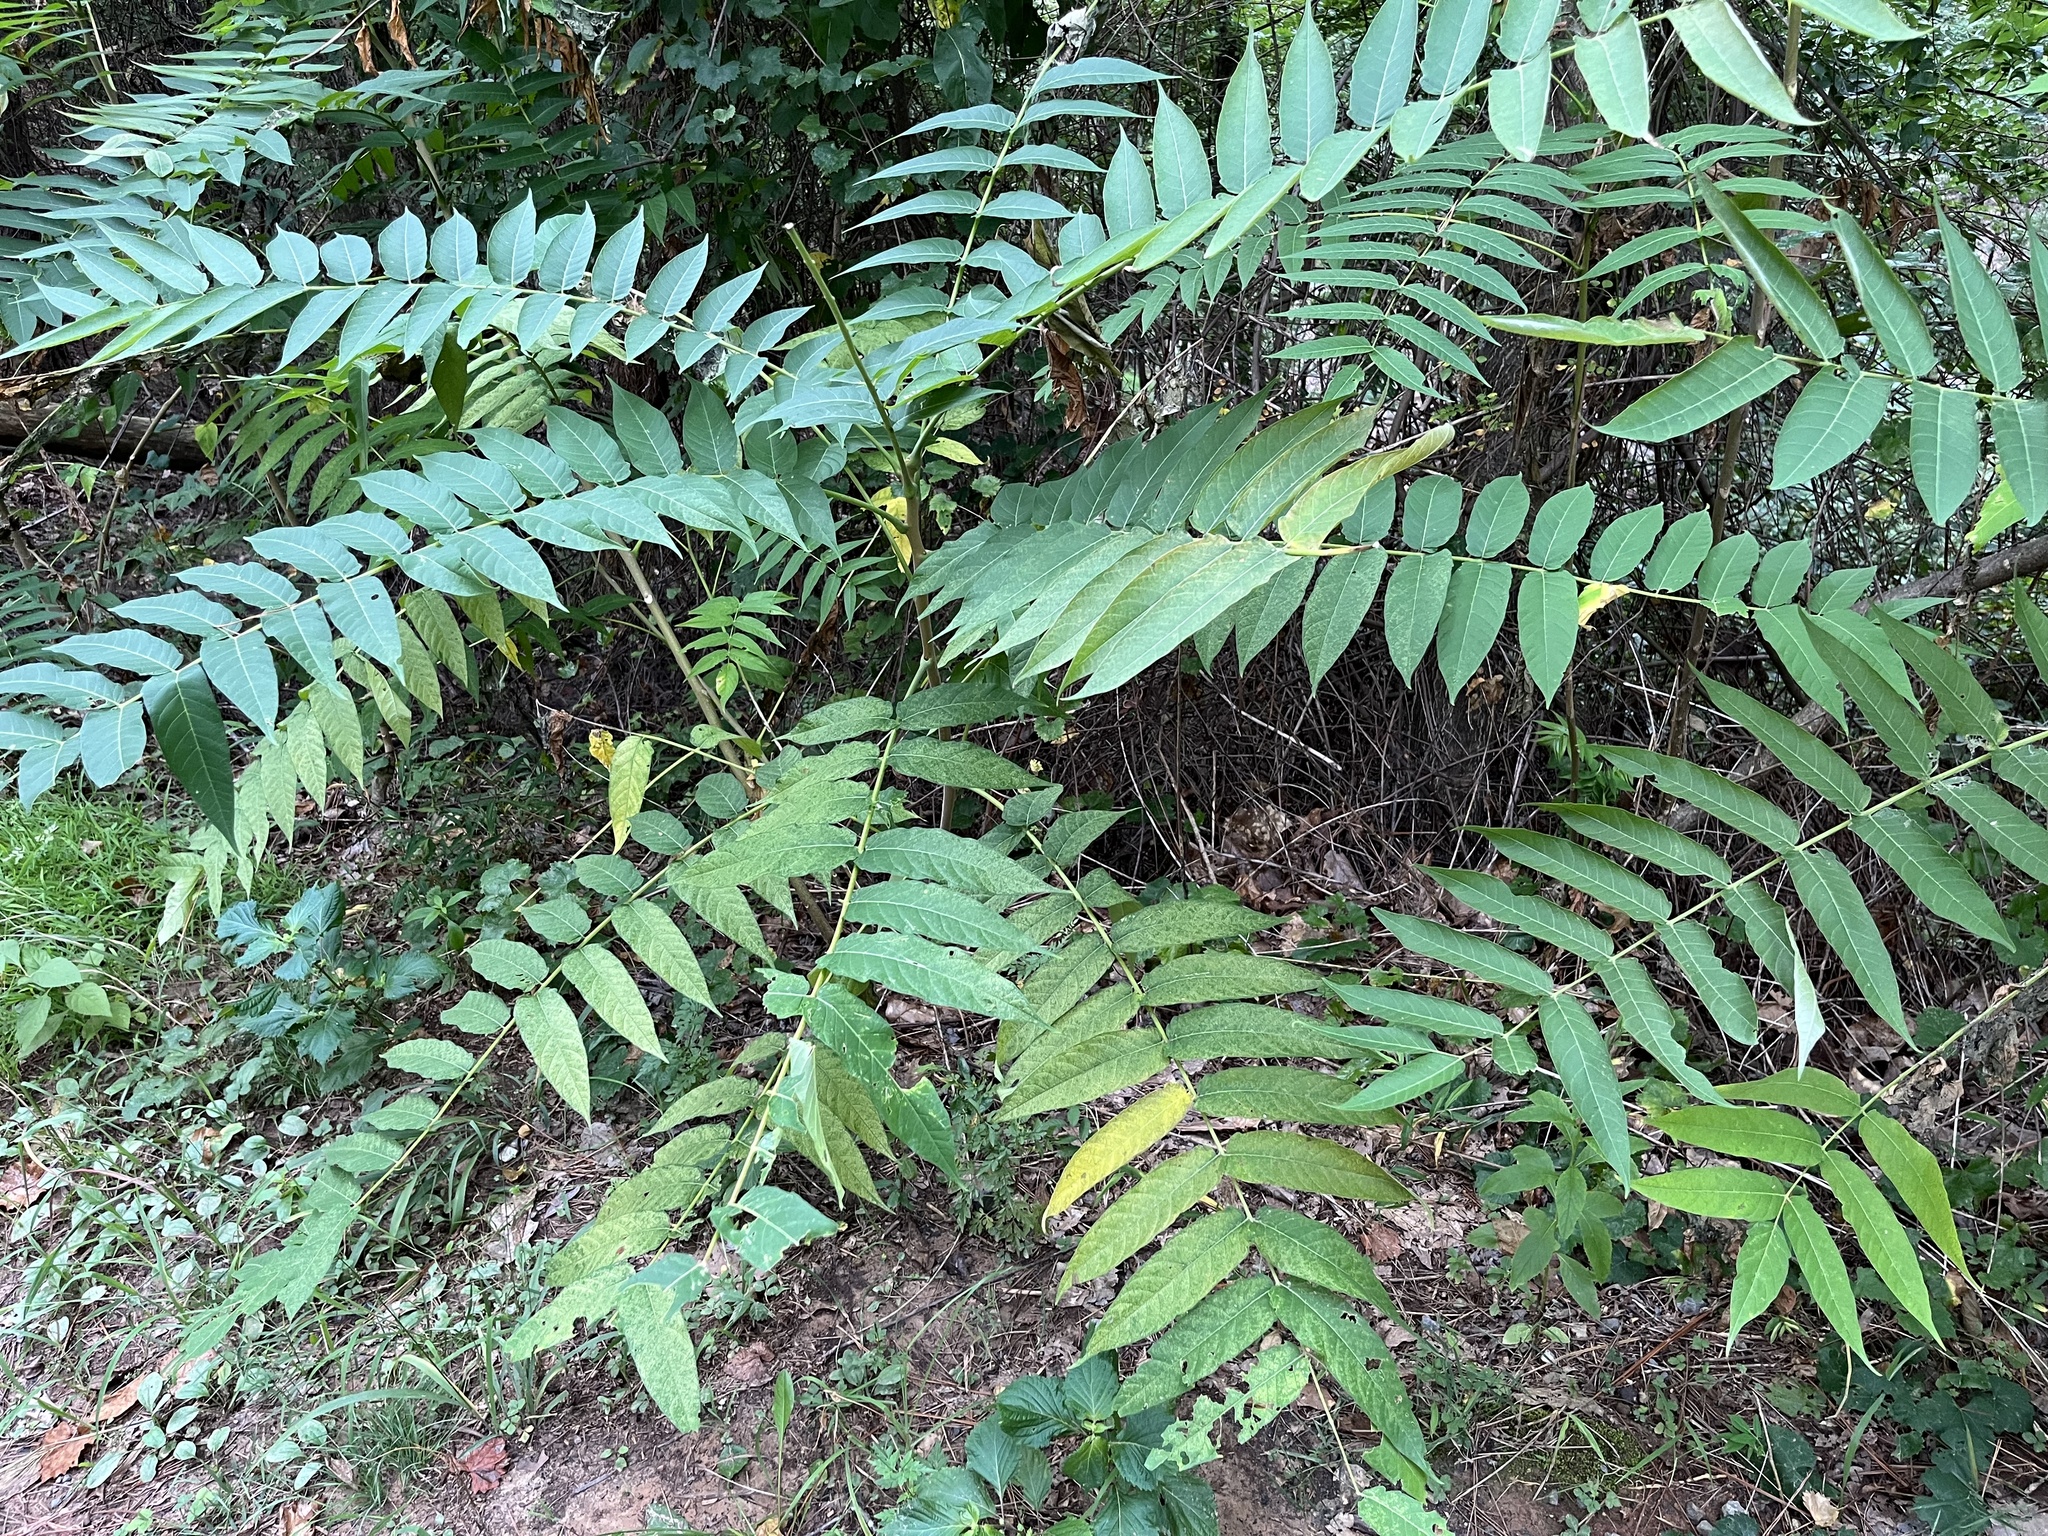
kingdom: Plantae
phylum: Tracheophyta
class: Magnoliopsida
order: Sapindales
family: Simaroubaceae
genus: Ailanthus
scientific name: Ailanthus altissima
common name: Tree-of-heaven
